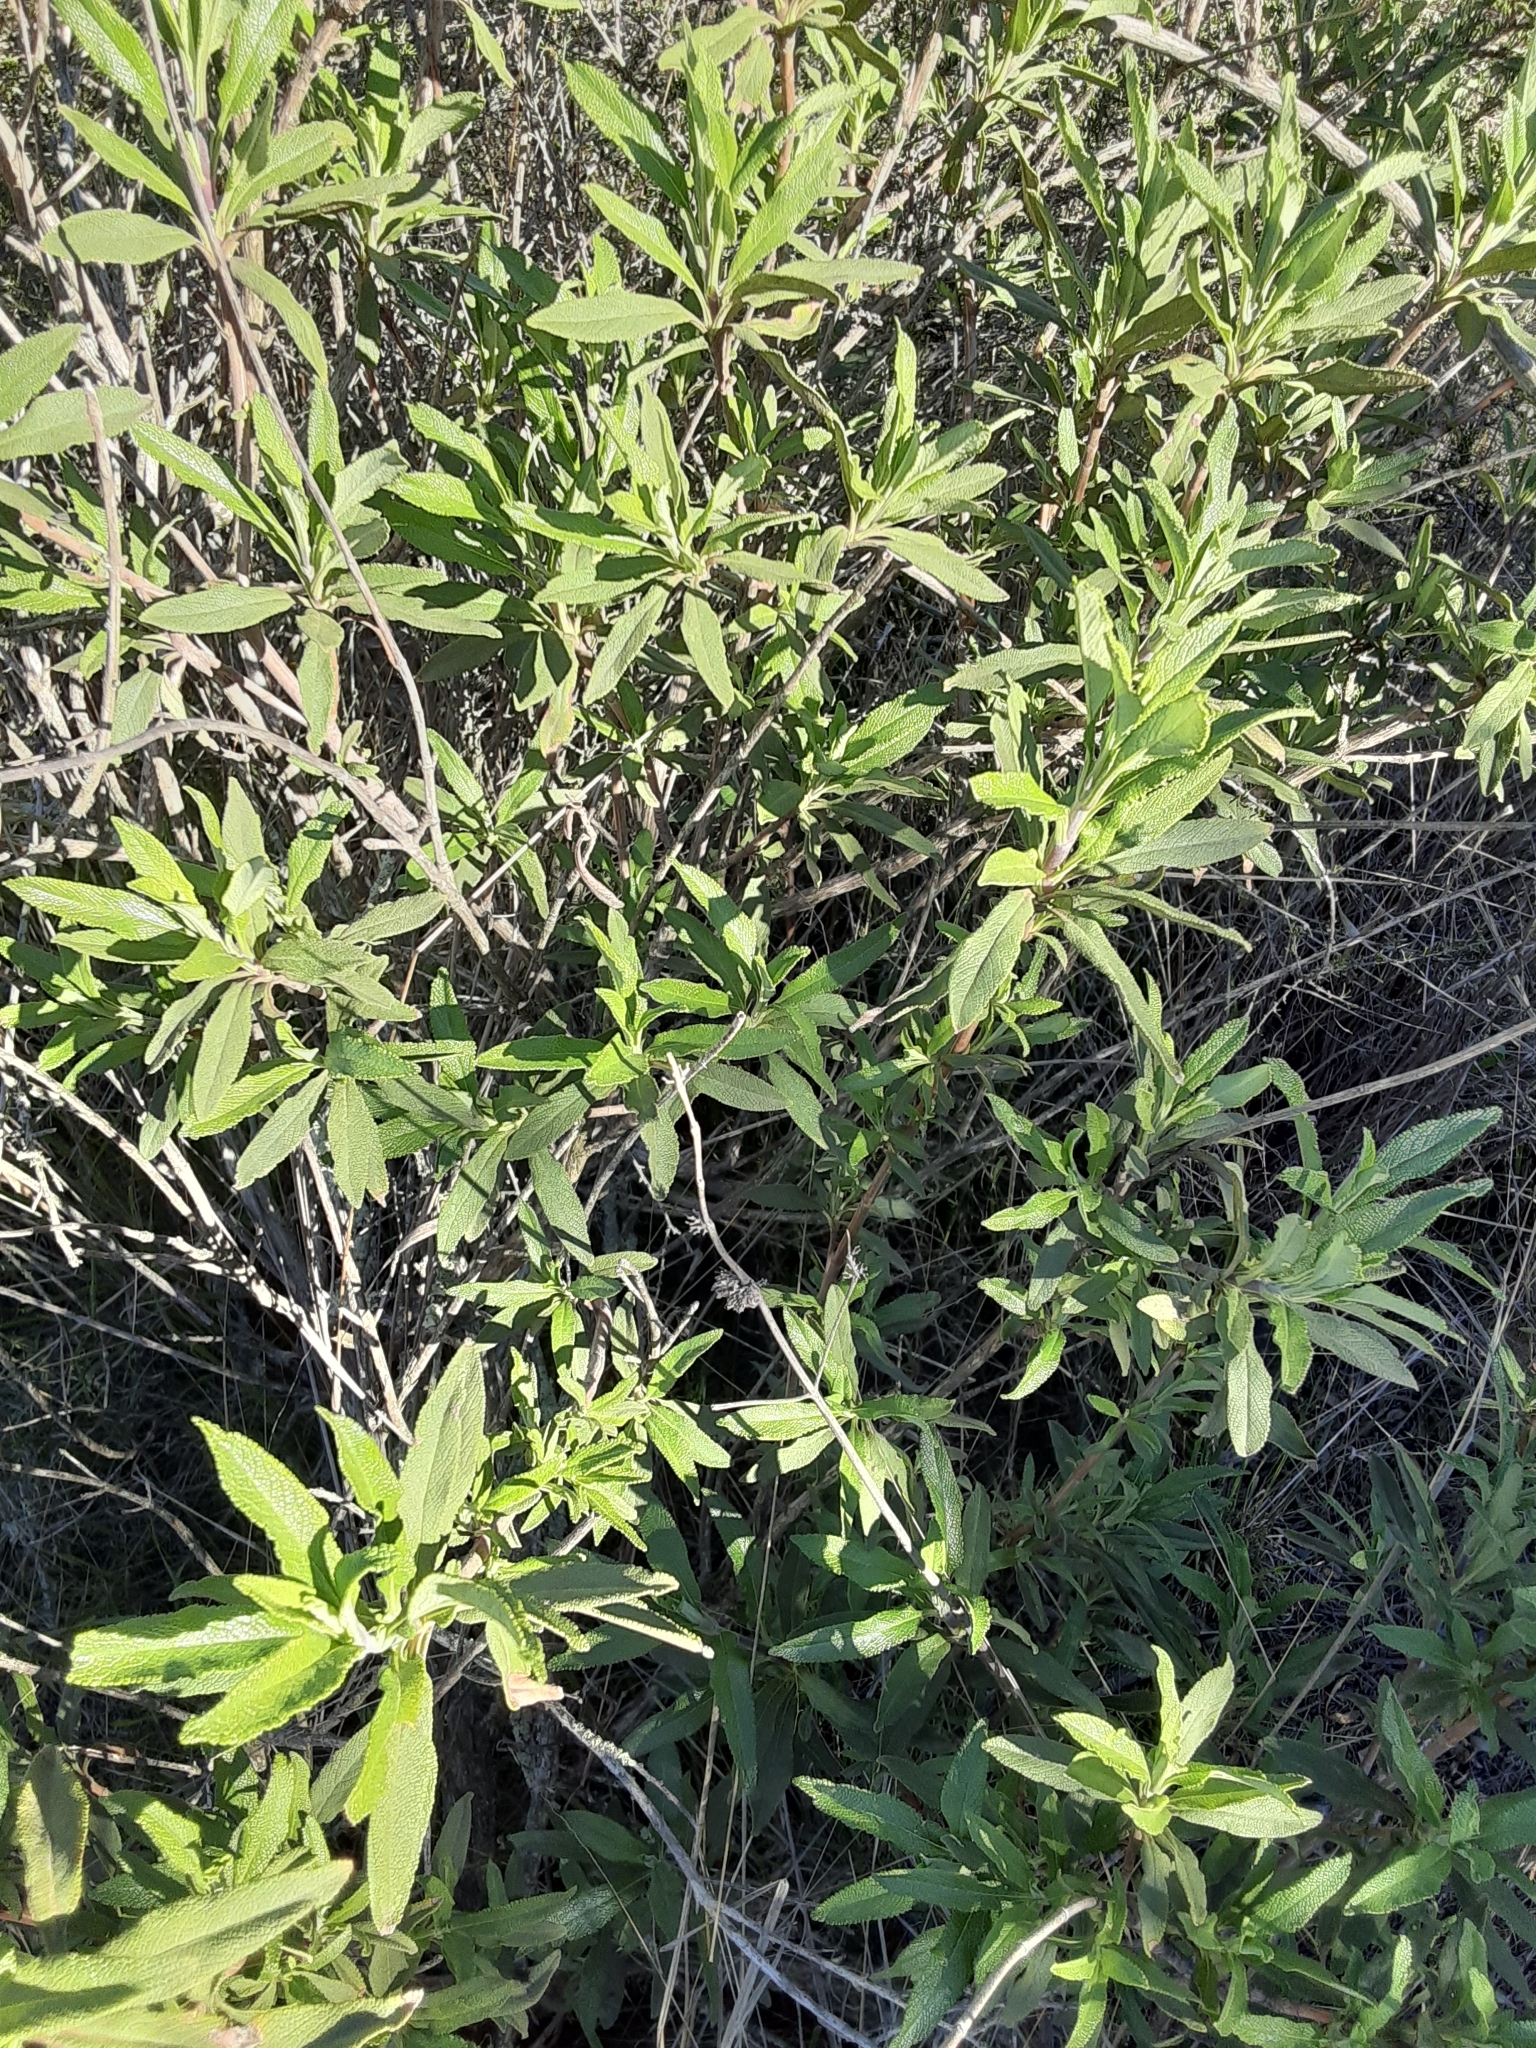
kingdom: Plantae
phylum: Tracheophyta
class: Magnoliopsida
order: Lamiales
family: Lamiaceae
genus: Salvia
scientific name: Salvia mellifera
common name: Black sage
